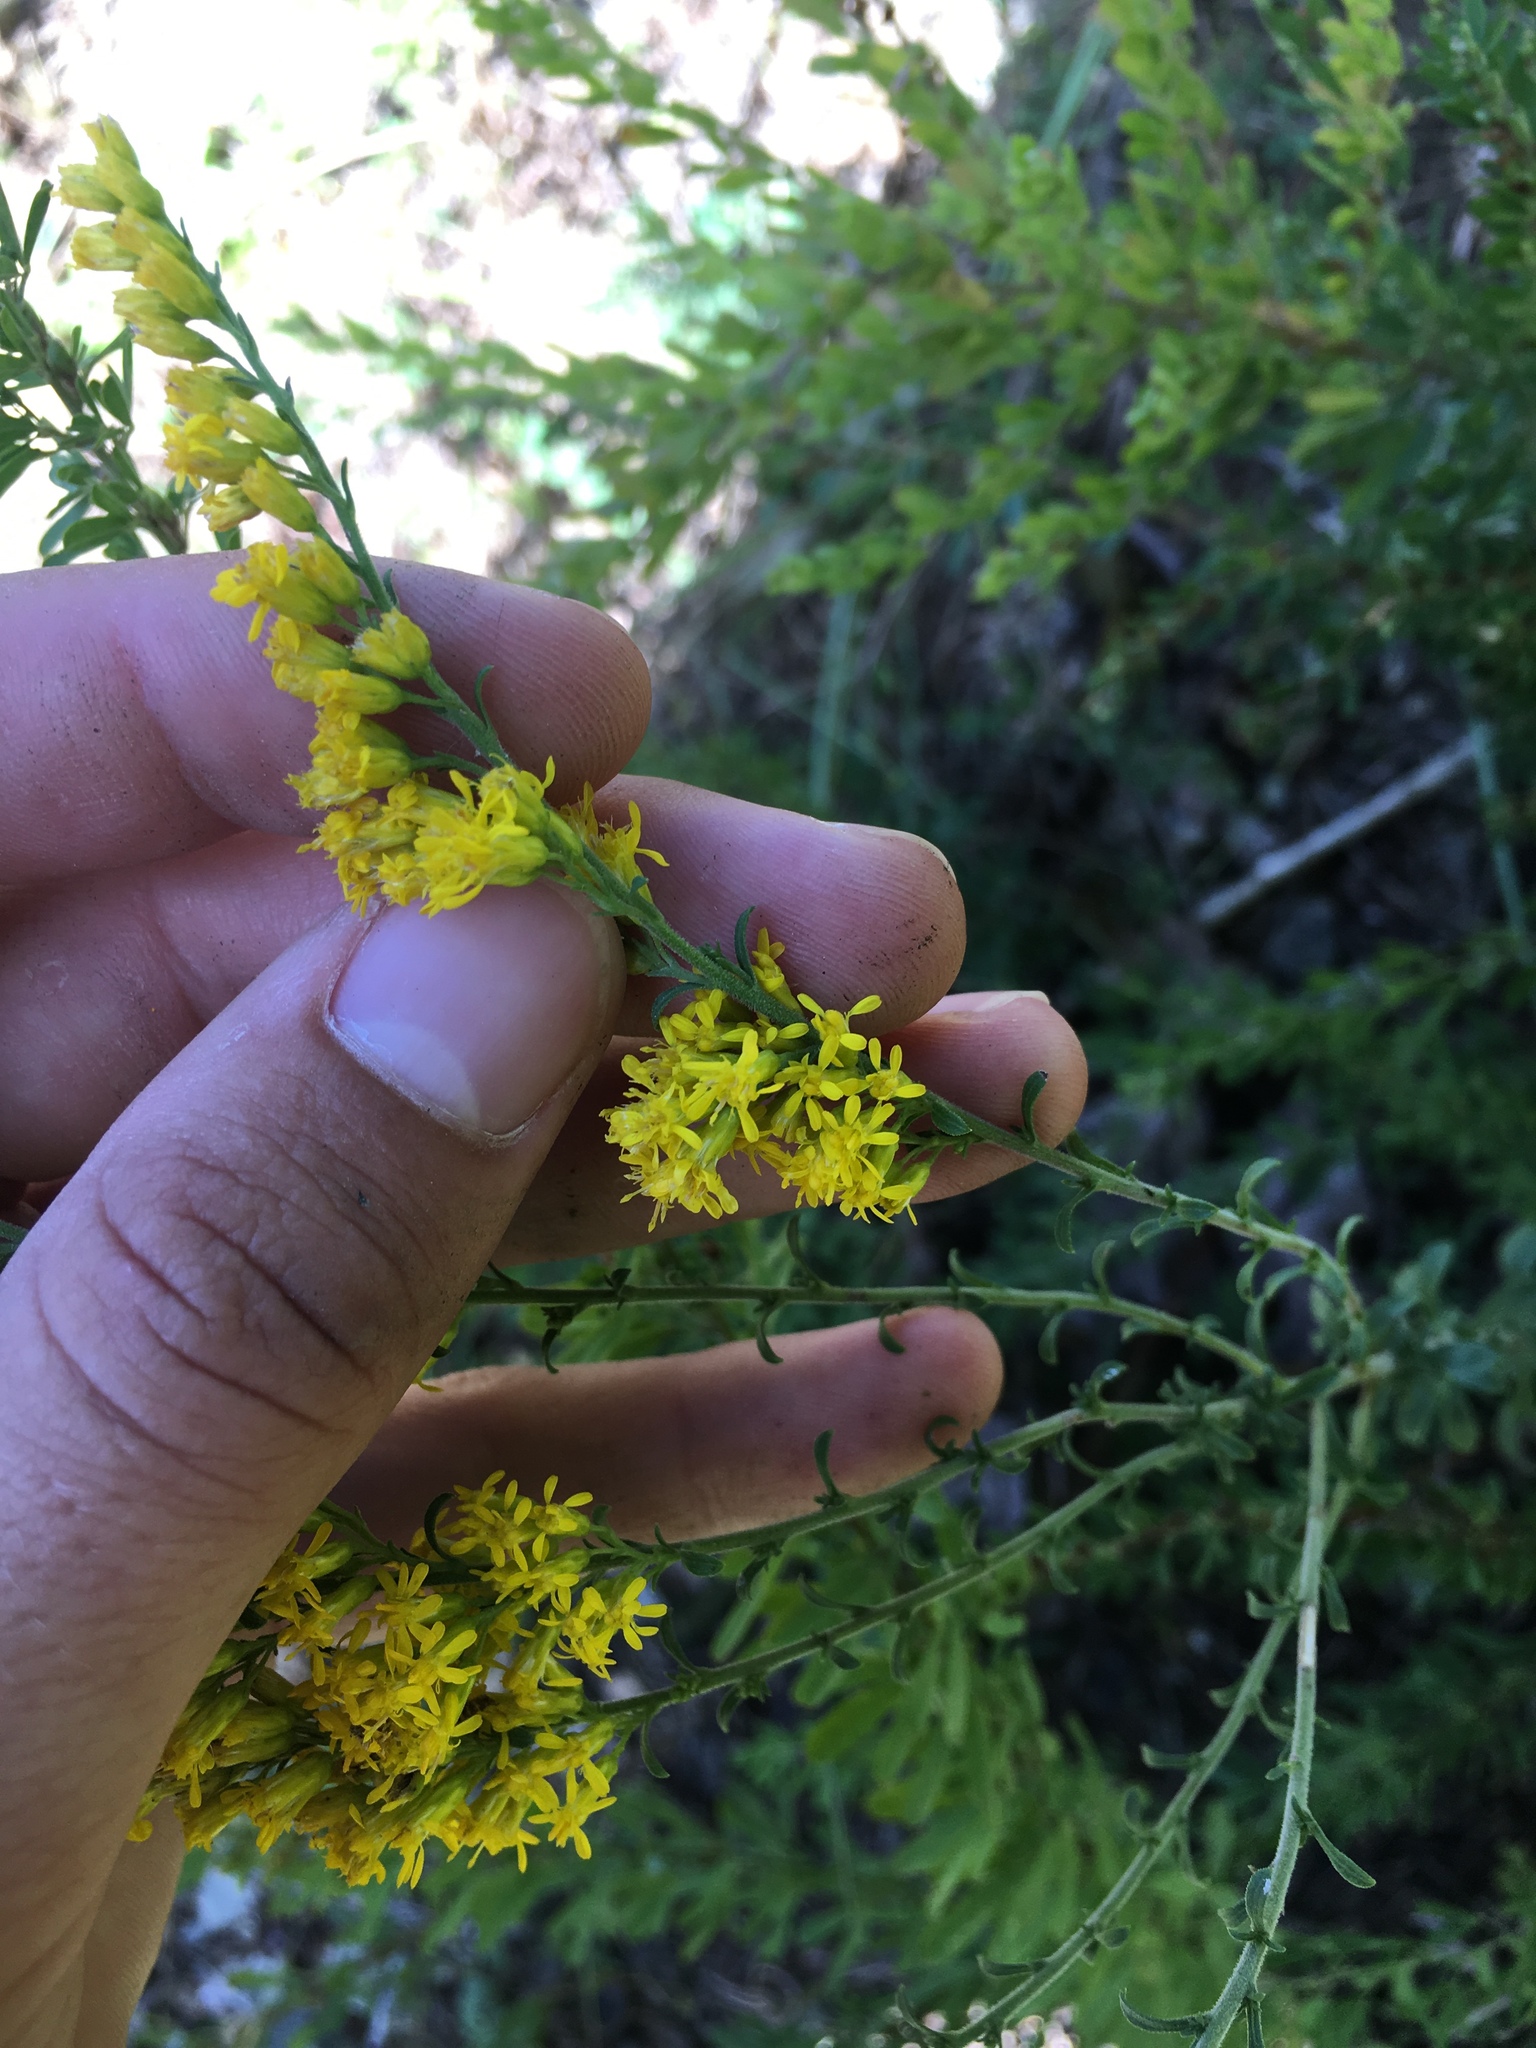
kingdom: Plantae
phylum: Tracheophyta
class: Magnoliopsida
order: Asterales
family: Asteraceae
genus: Solidago
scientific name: Solidago nemoralis
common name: Grey goldenrod
